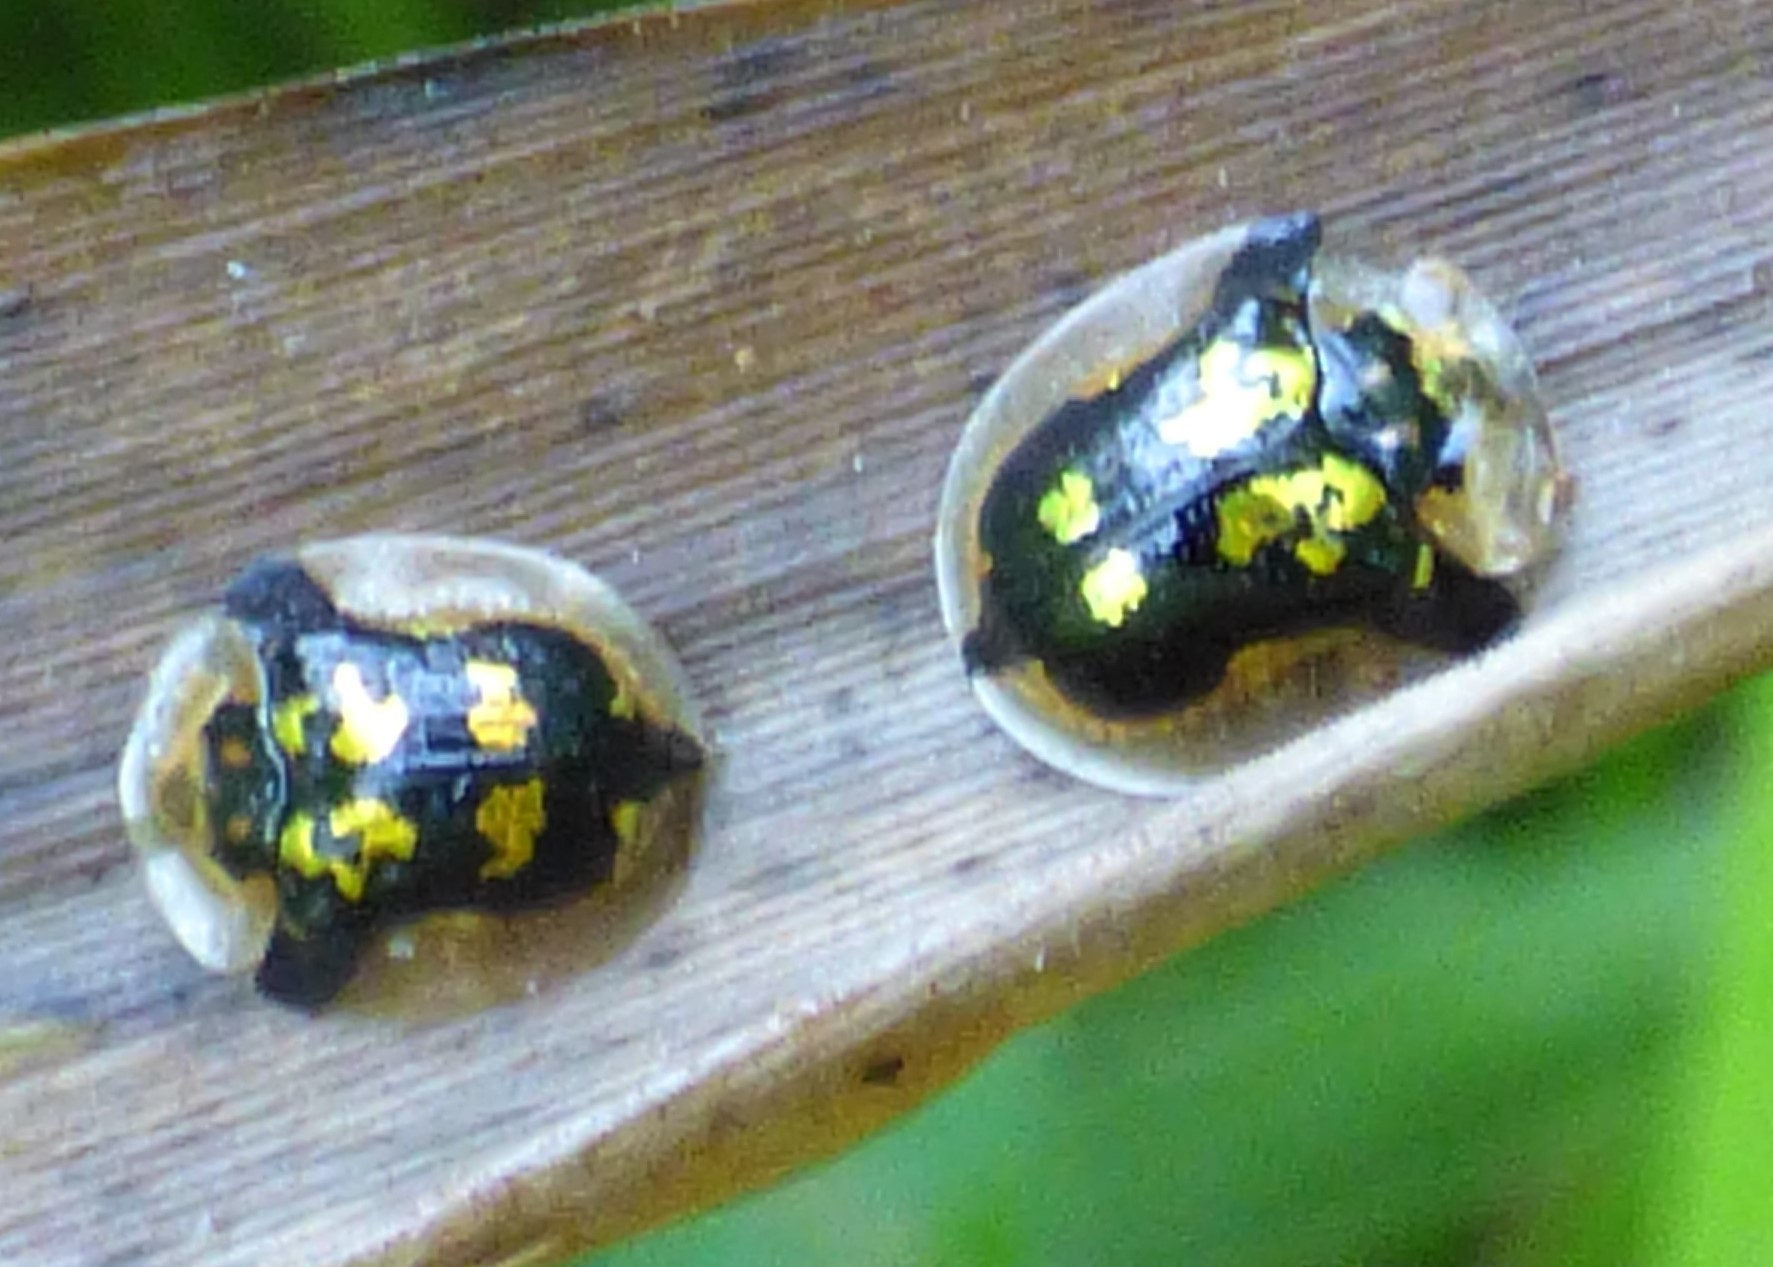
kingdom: Animalia
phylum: Arthropoda
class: Insecta
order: Coleoptera
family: Chrysomelidae
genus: Deloyala
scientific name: Deloyala guttata
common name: Mottled tortoise beetle
